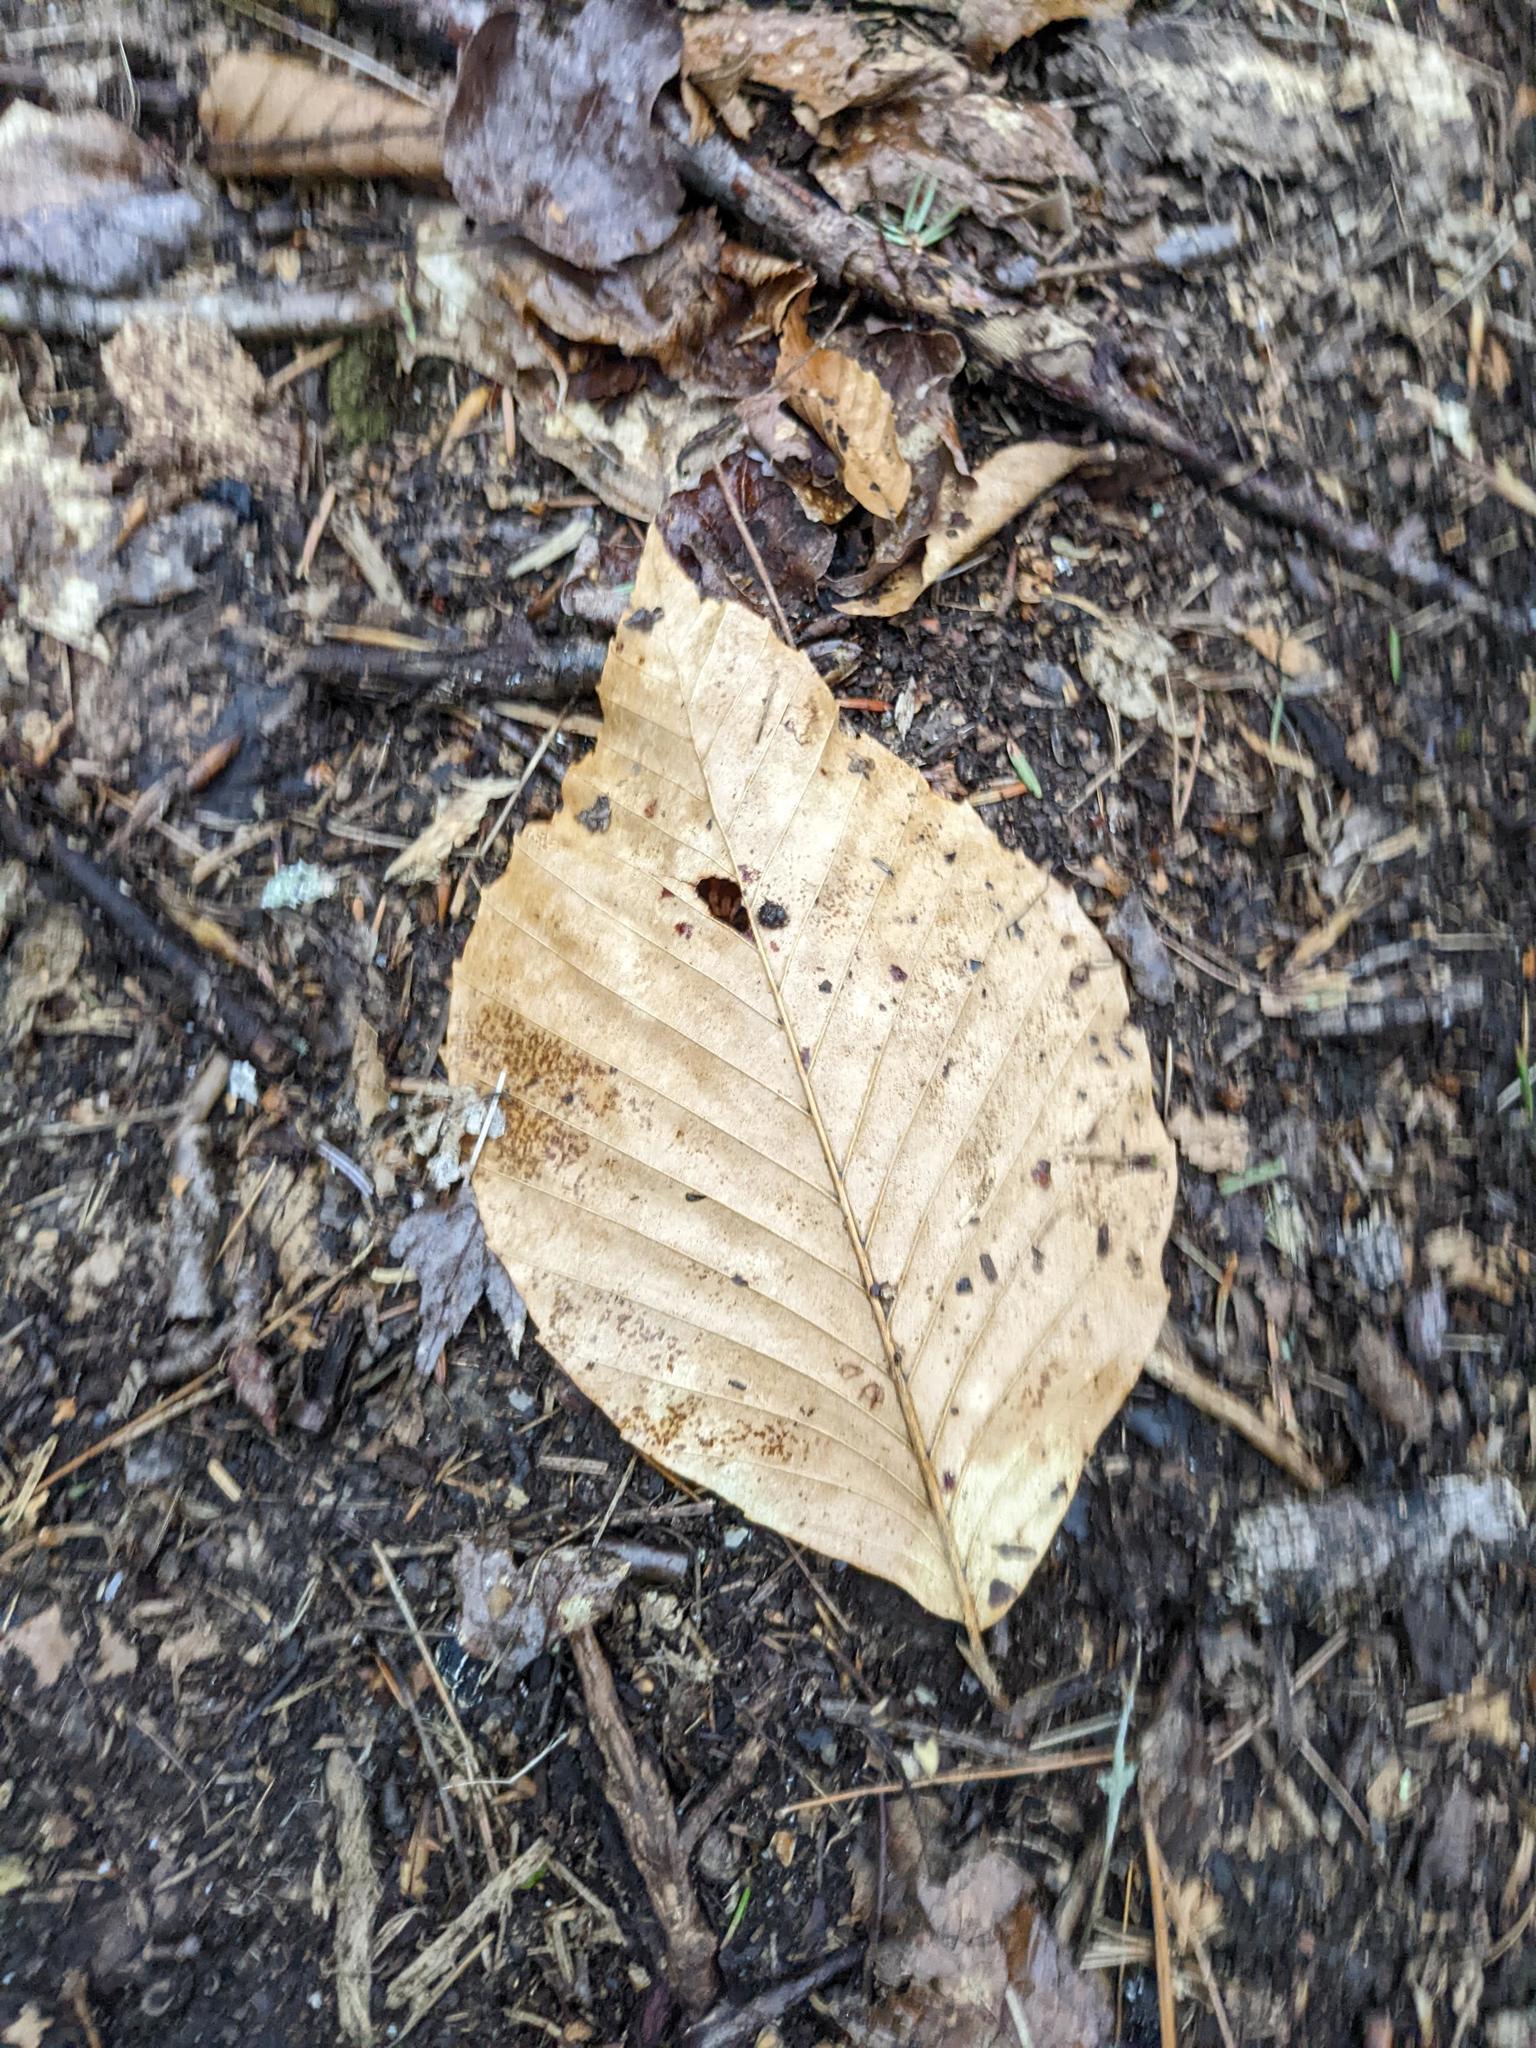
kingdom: Plantae
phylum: Tracheophyta
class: Magnoliopsida
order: Fagales
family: Fagaceae
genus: Fagus
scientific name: Fagus grandifolia
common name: American beech
